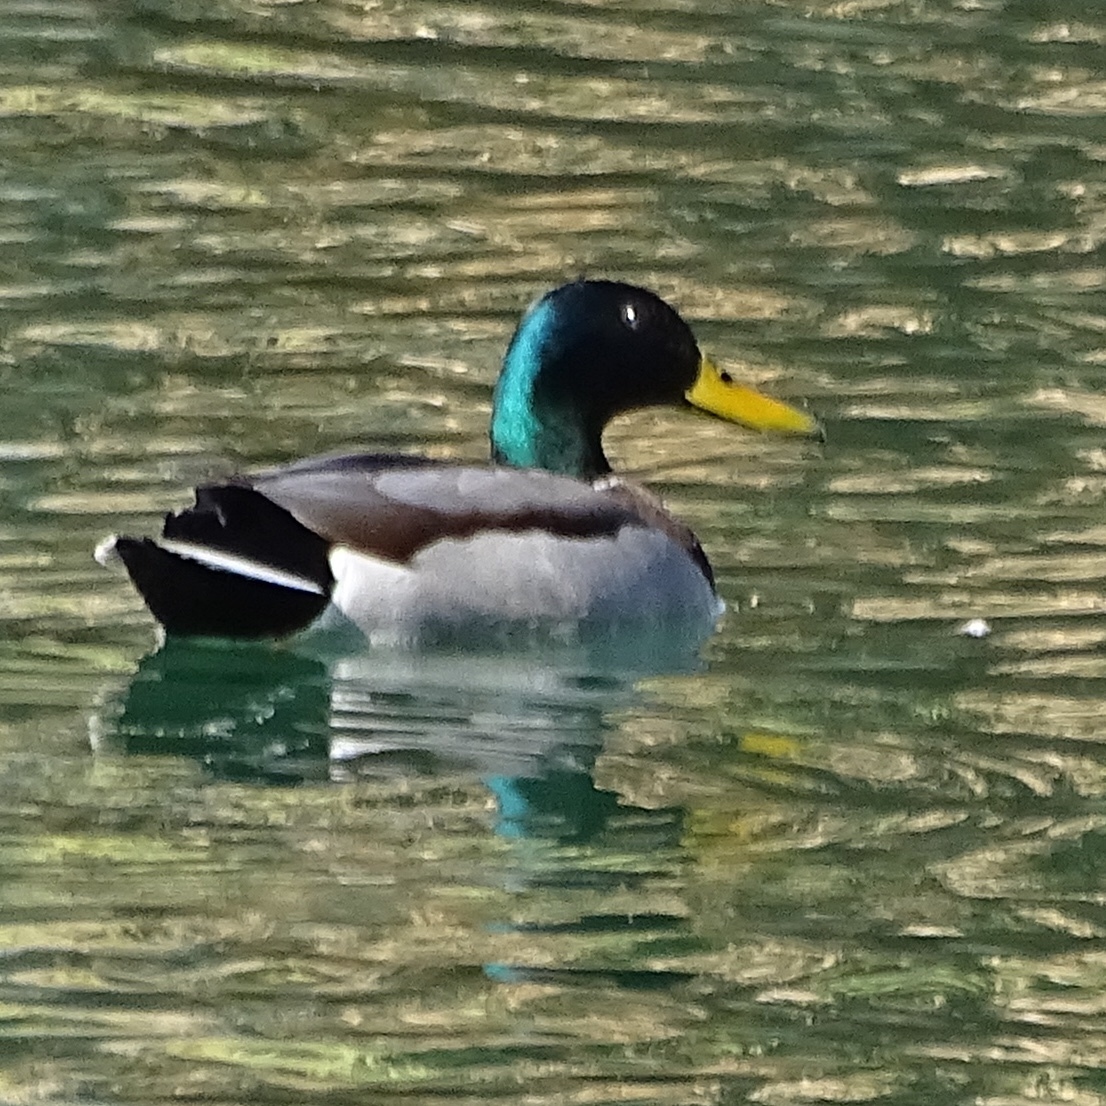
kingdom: Animalia
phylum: Chordata
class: Aves
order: Anseriformes
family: Anatidae
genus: Anas
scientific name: Anas platyrhynchos
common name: Mallard
